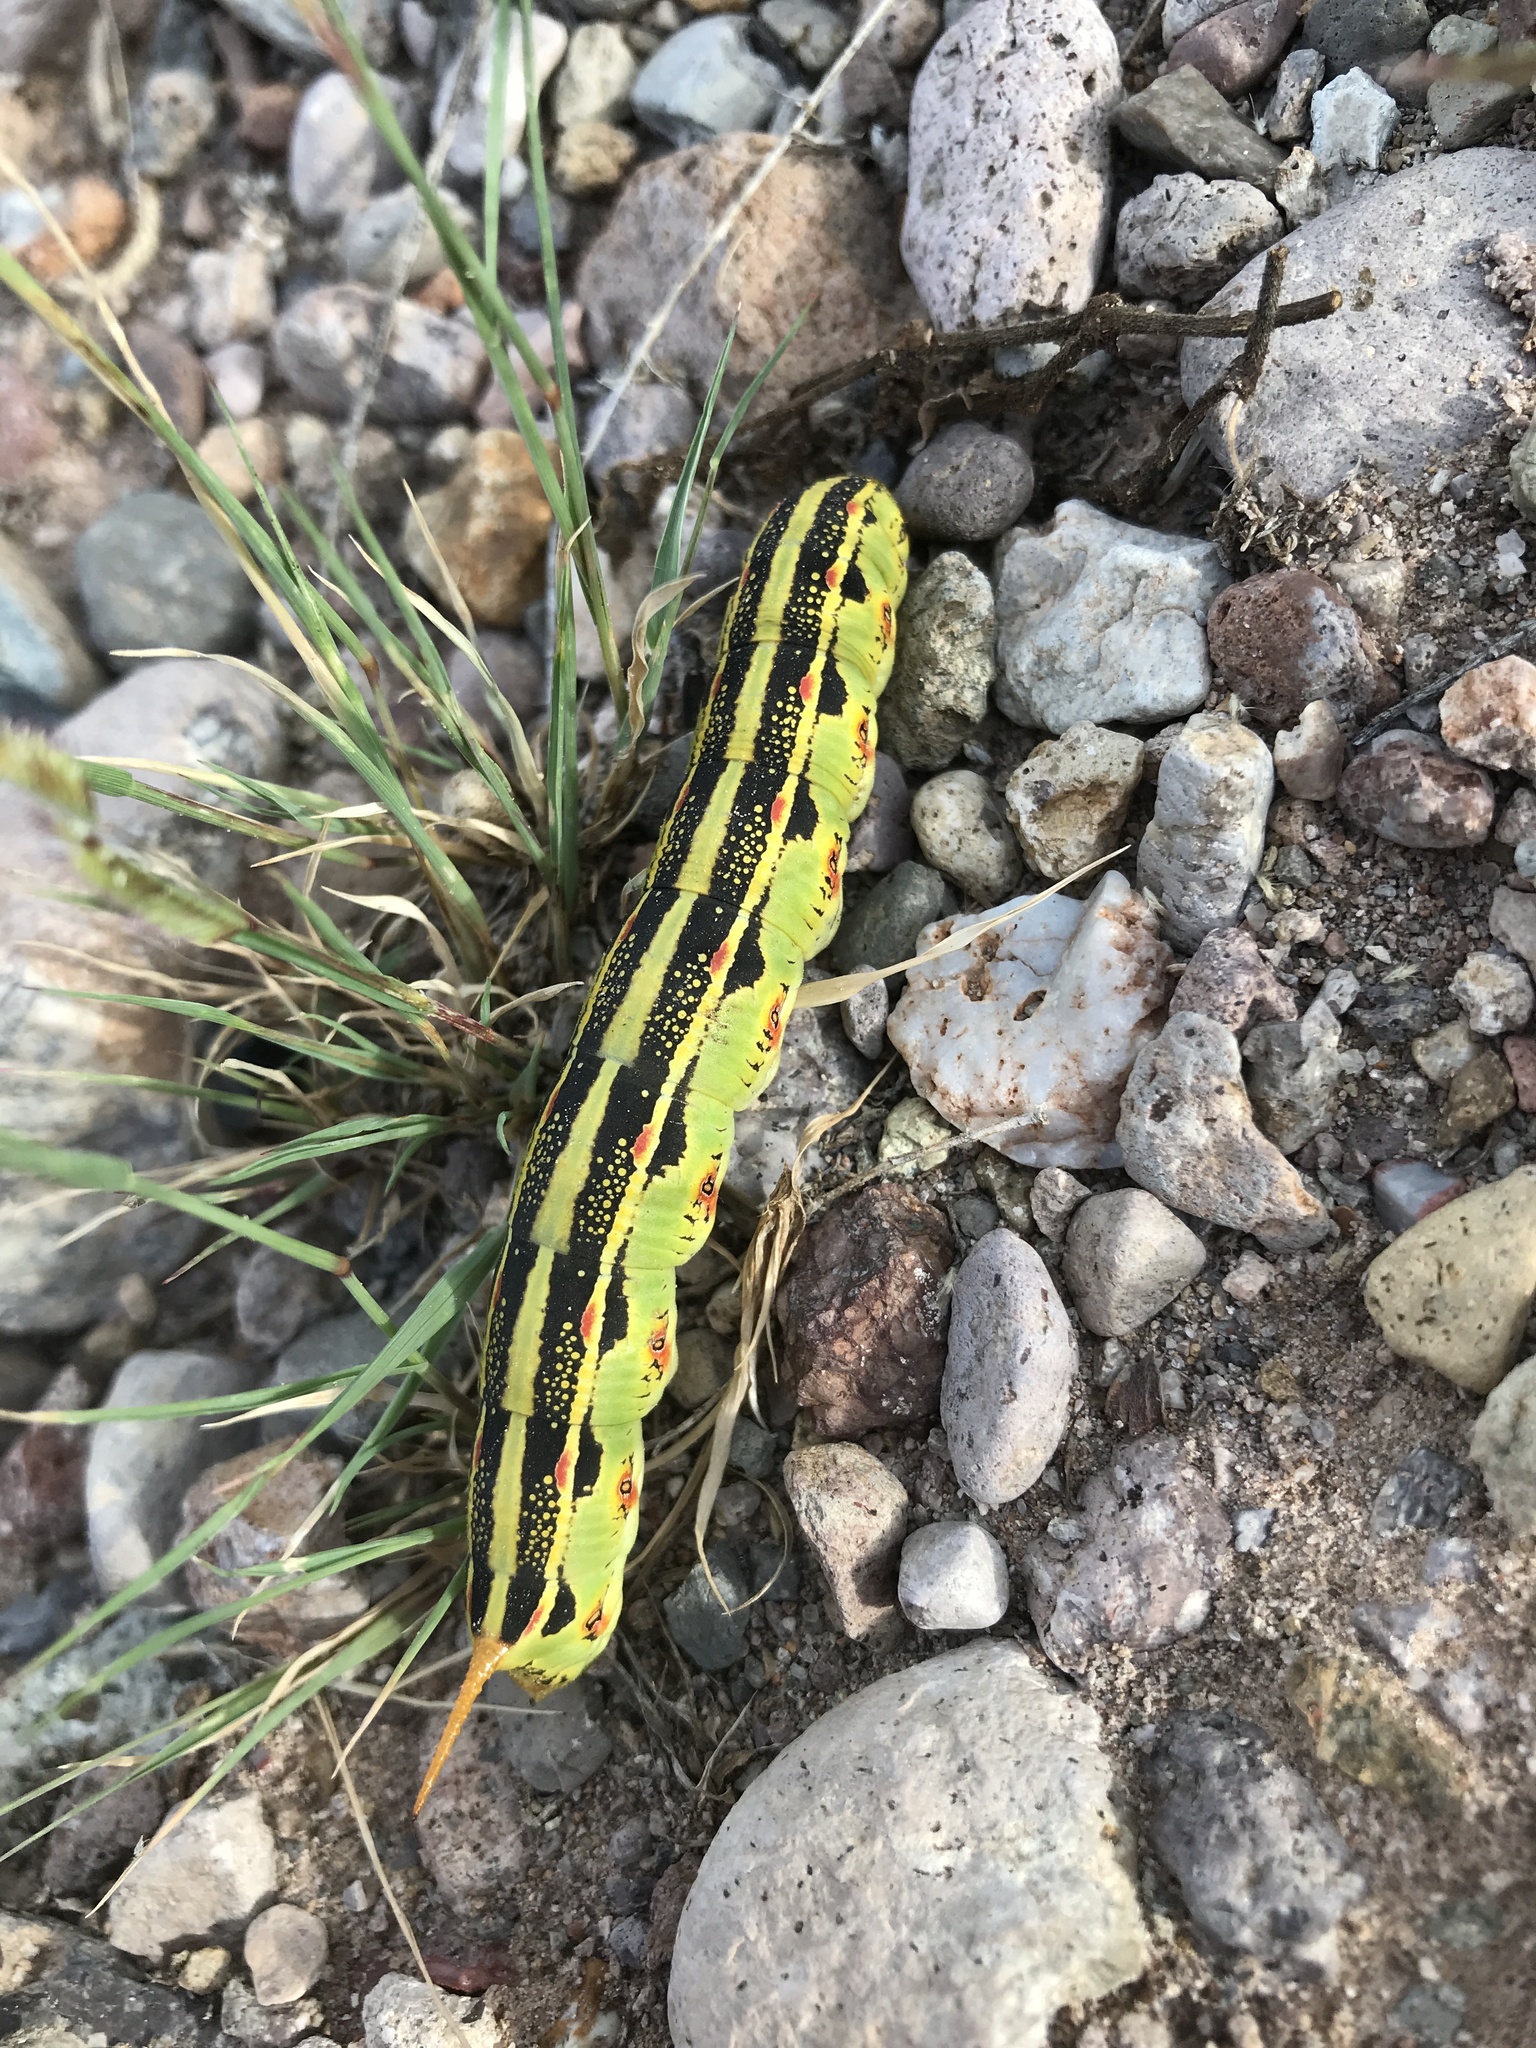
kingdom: Animalia
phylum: Arthropoda
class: Insecta
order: Lepidoptera
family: Sphingidae
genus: Hyles
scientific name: Hyles lineata
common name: White-lined sphinx
